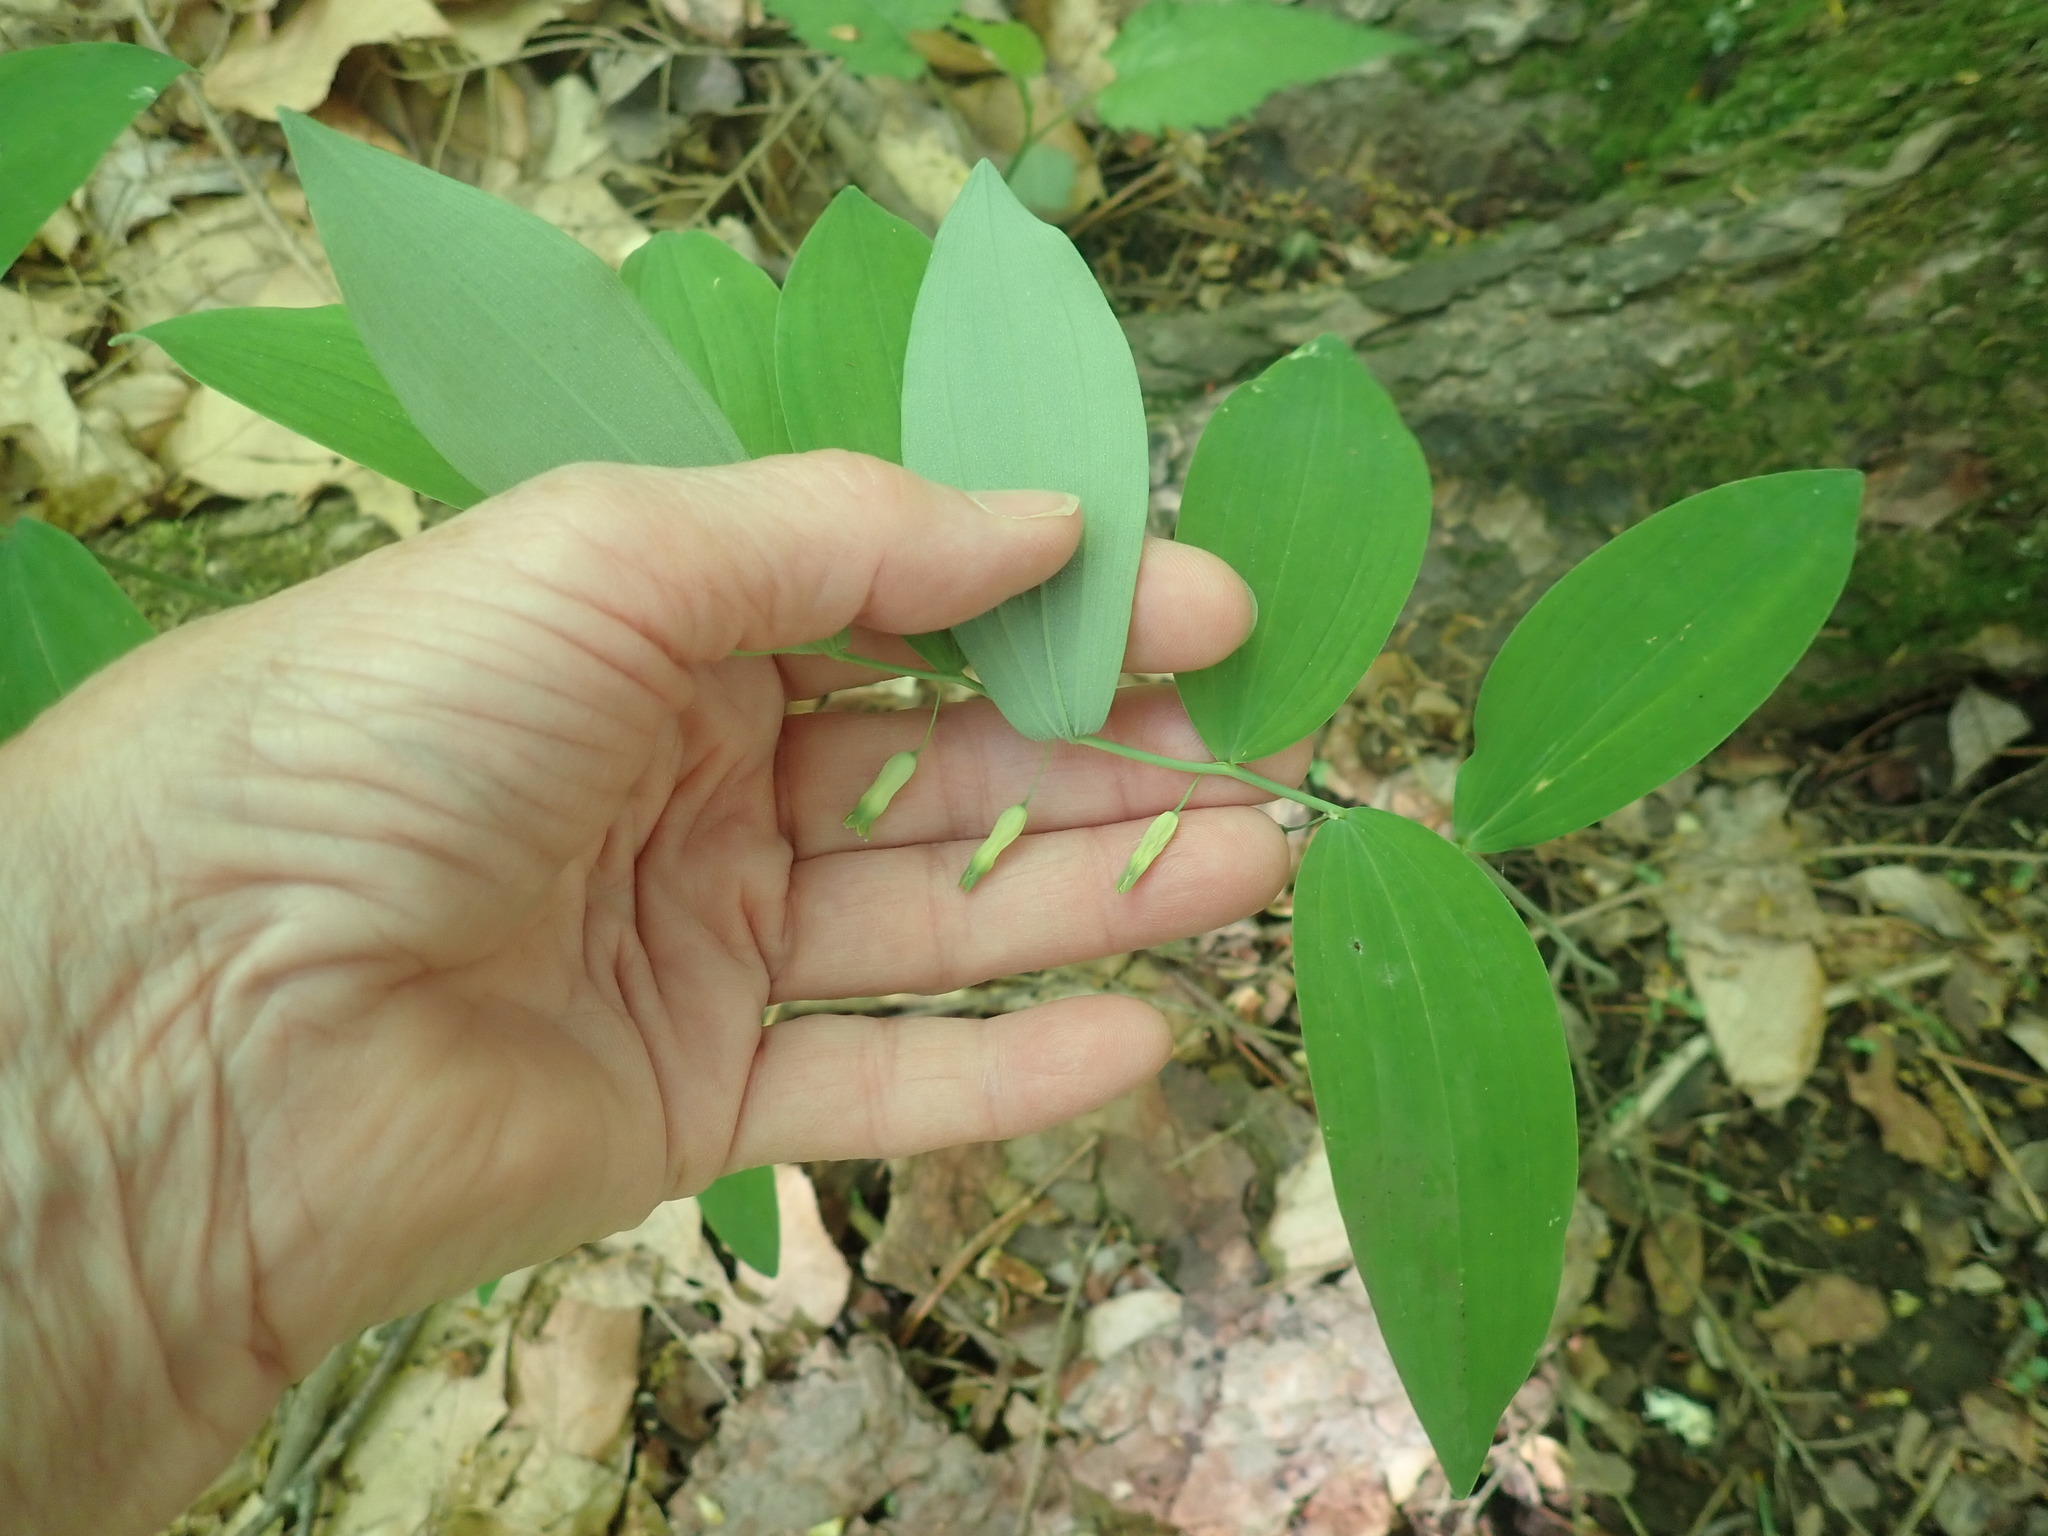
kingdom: Plantae
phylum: Tracheophyta
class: Liliopsida
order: Asparagales
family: Asparagaceae
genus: Polygonatum
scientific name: Polygonatum pubescens
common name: Downy solomon's seal
